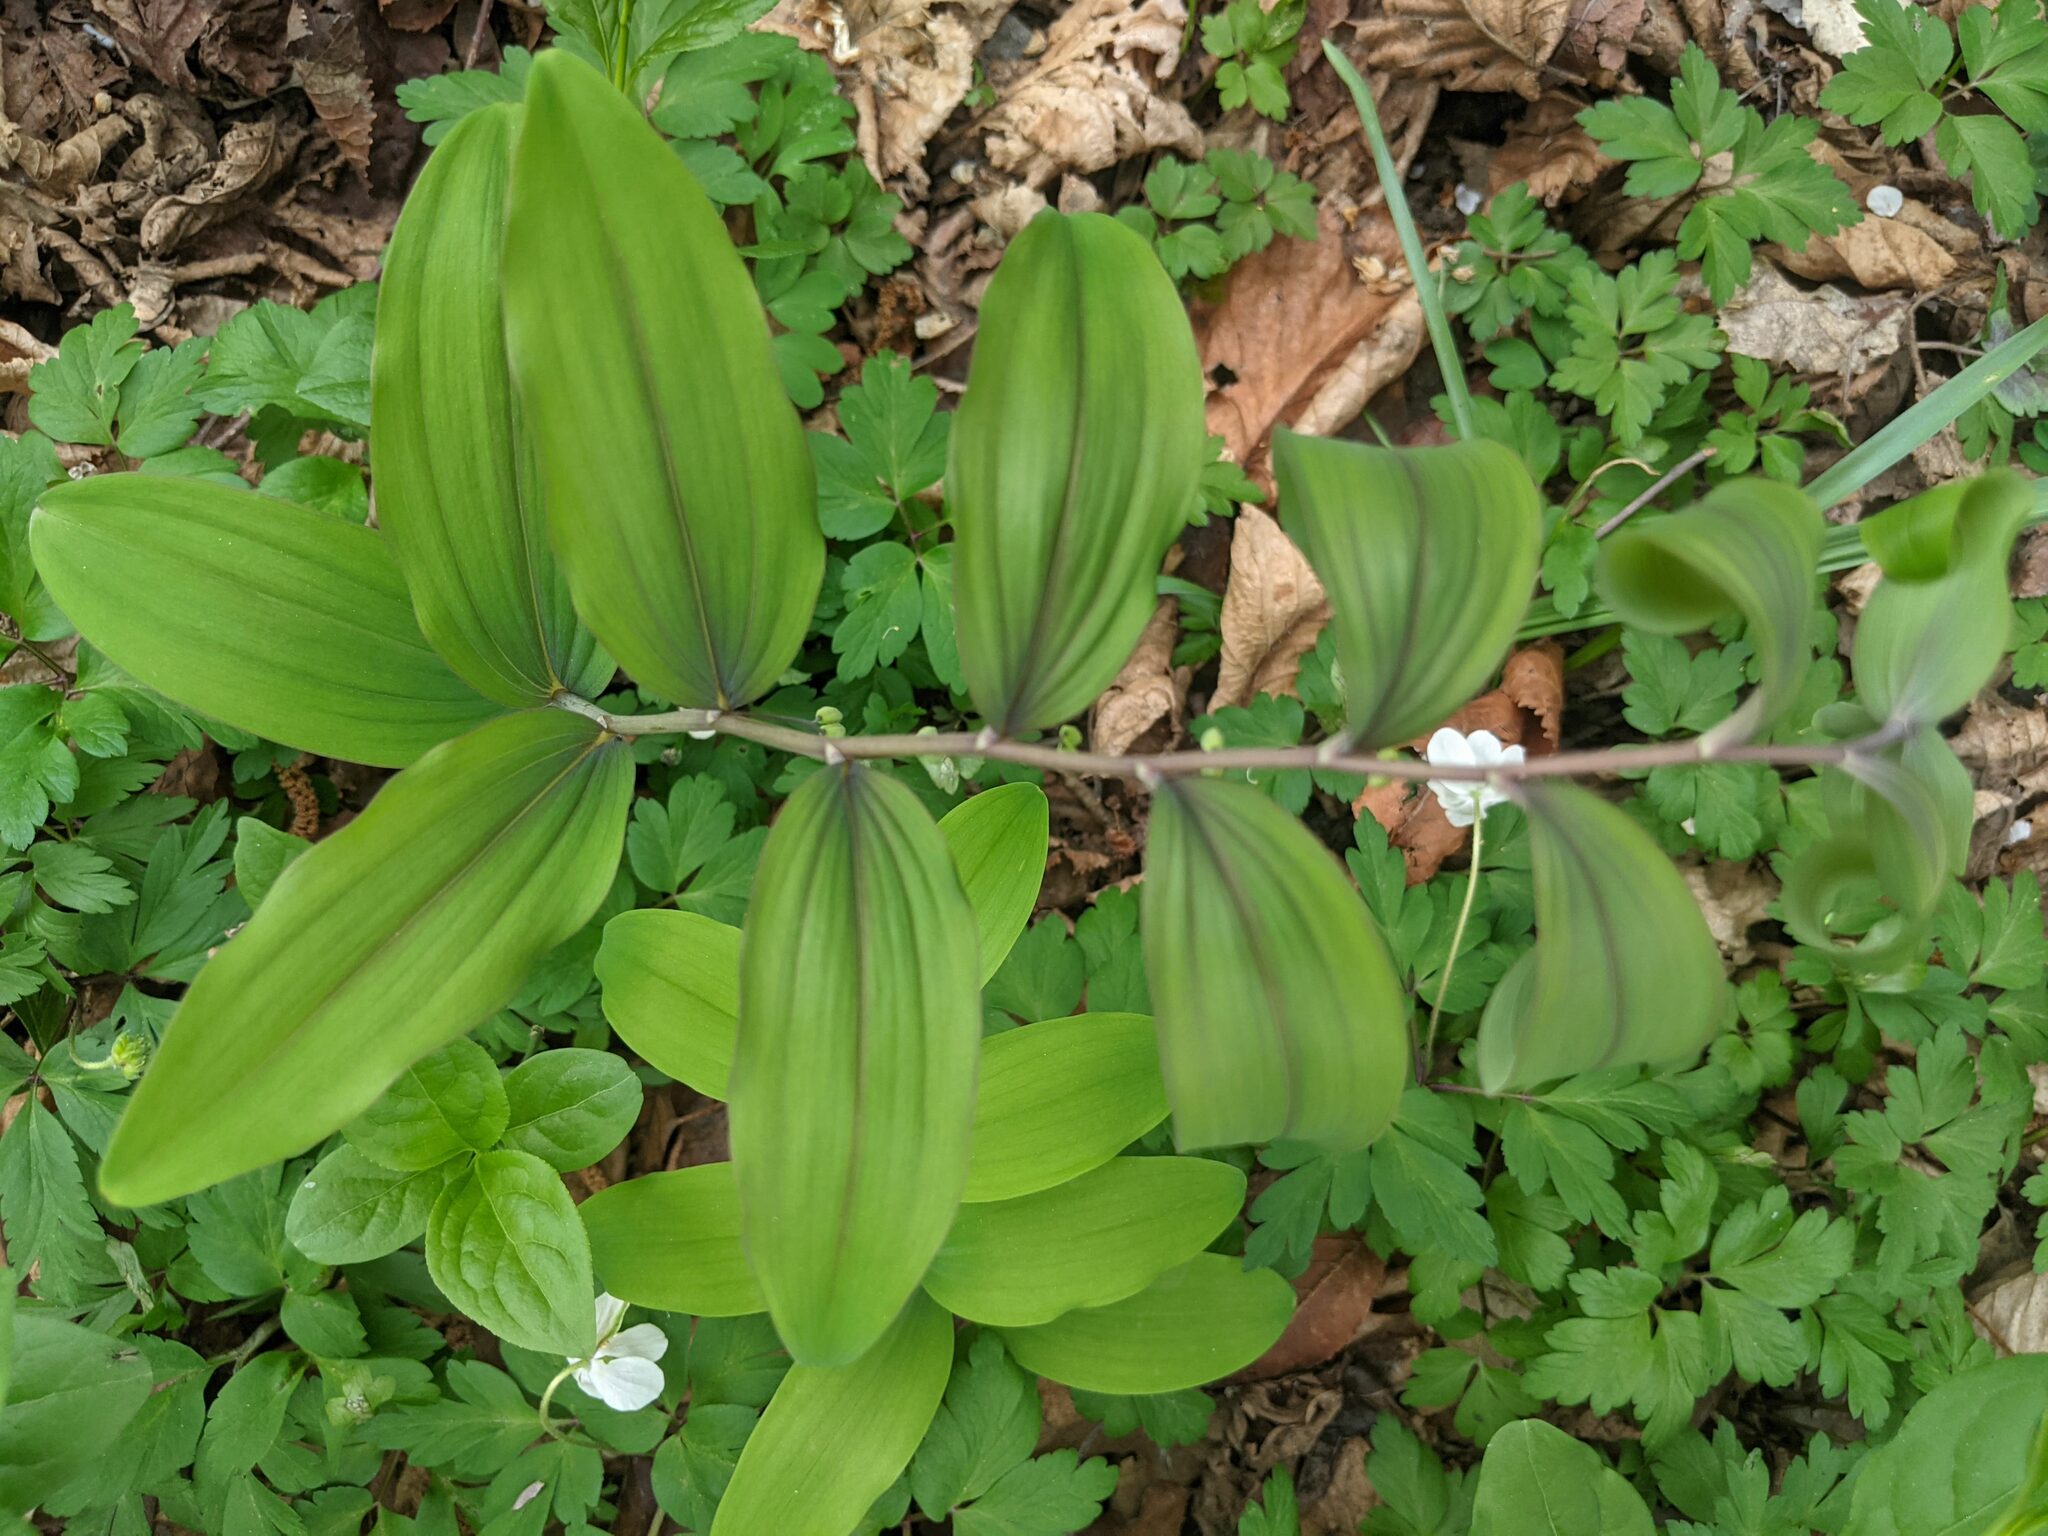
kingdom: Plantae
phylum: Tracheophyta
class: Liliopsida
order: Asparagales
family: Asparagaceae
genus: Polygonatum
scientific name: Polygonatum multiflorum
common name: Solomon's-seal
